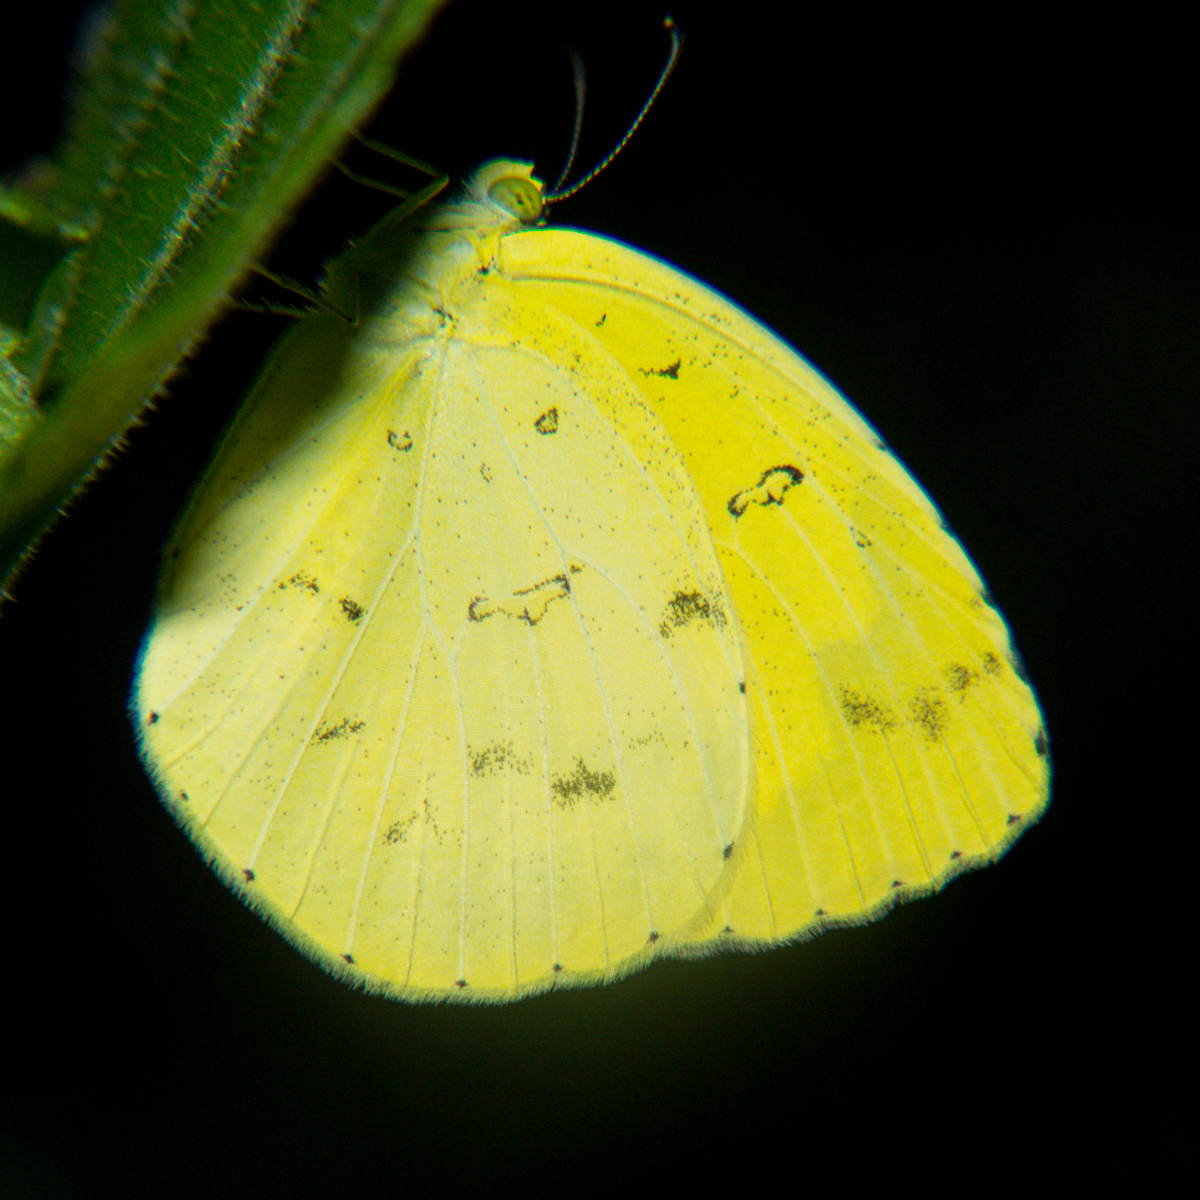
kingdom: Animalia
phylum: Arthropoda
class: Insecta
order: Lepidoptera
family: Pieridae
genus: Eurema
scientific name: Eurema hecabe
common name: Pale grass yellow
